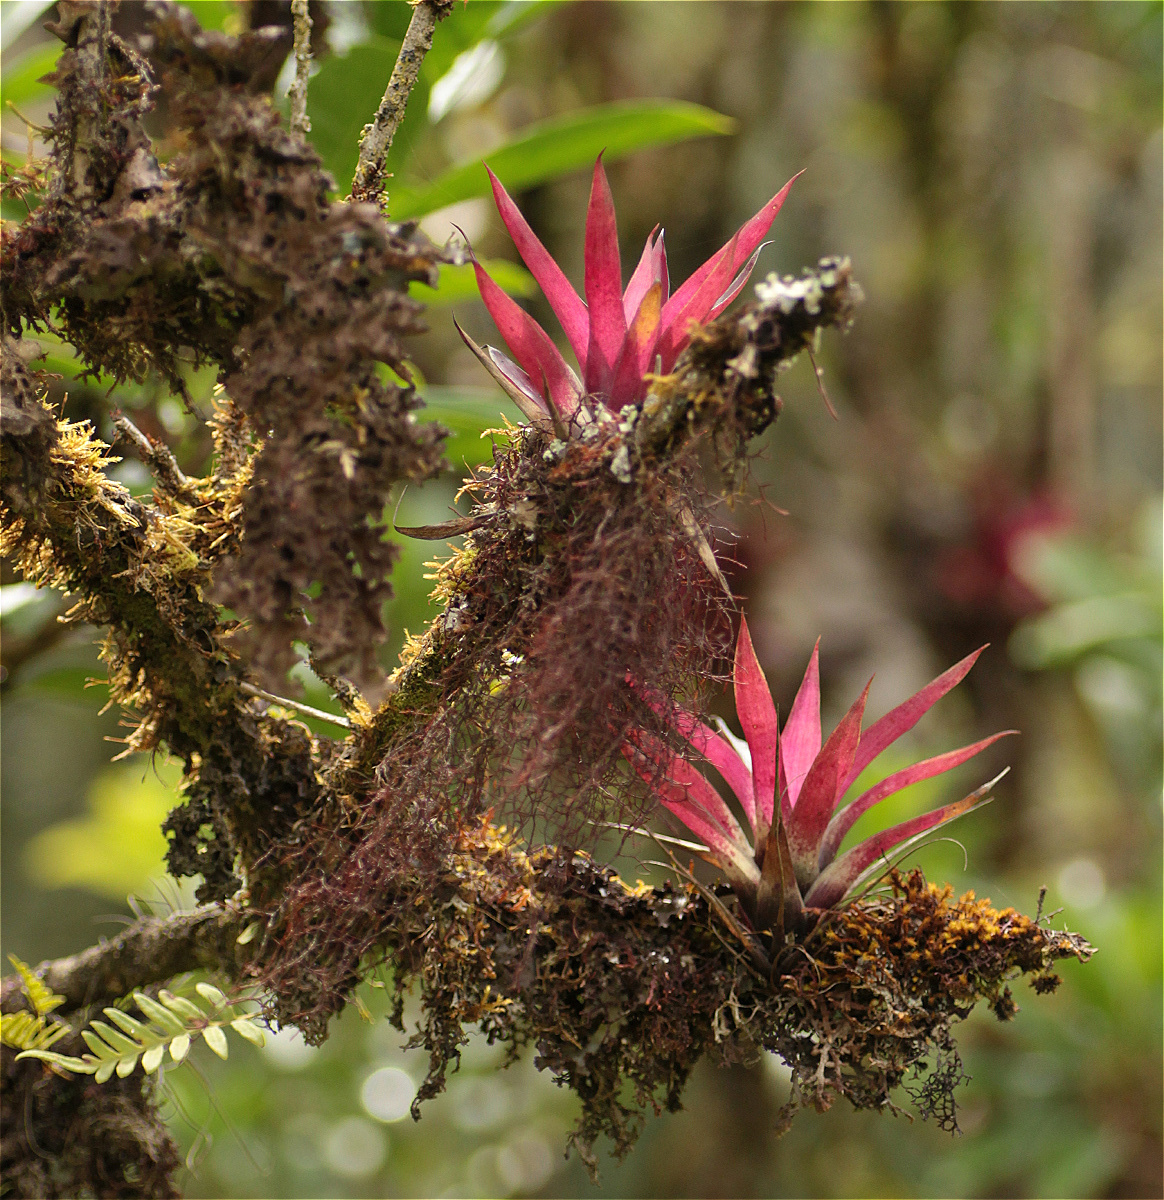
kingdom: Plantae
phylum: Tracheophyta
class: Liliopsida
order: Poales
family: Bromeliaceae
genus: Tillandsia
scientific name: Tillandsia biflora
